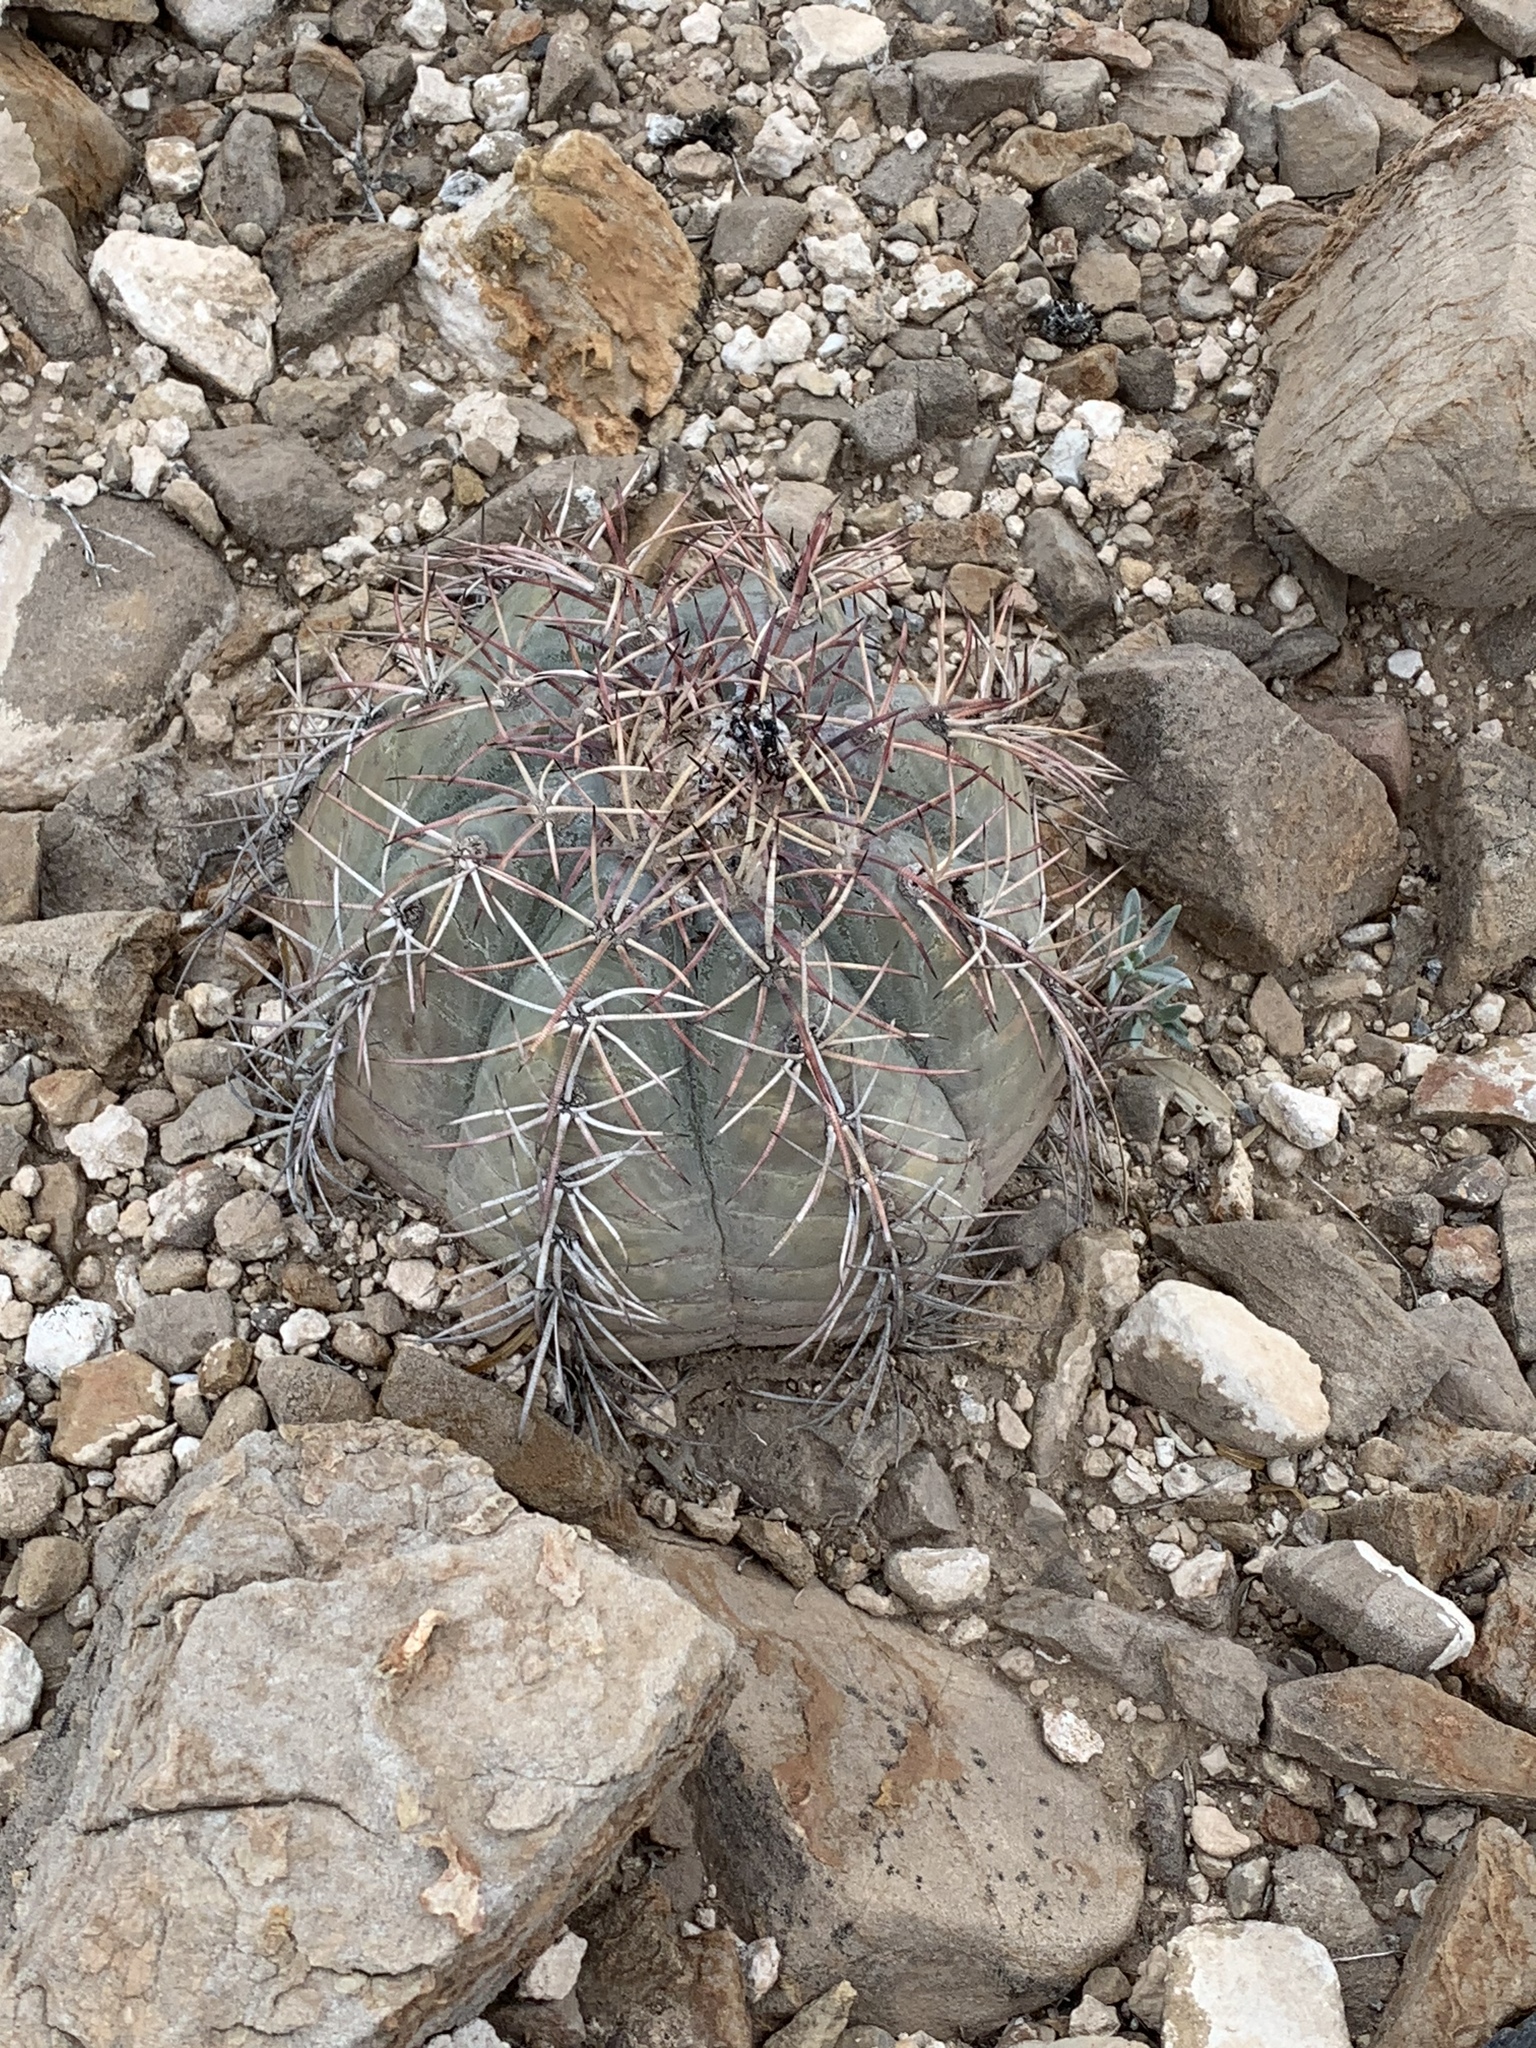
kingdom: Plantae
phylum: Tracheophyta
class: Magnoliopsida
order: Caryophyllales
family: Cactaceae
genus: Echinocactus
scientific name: Echinocactus horizonthalonius
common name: Devilshead
